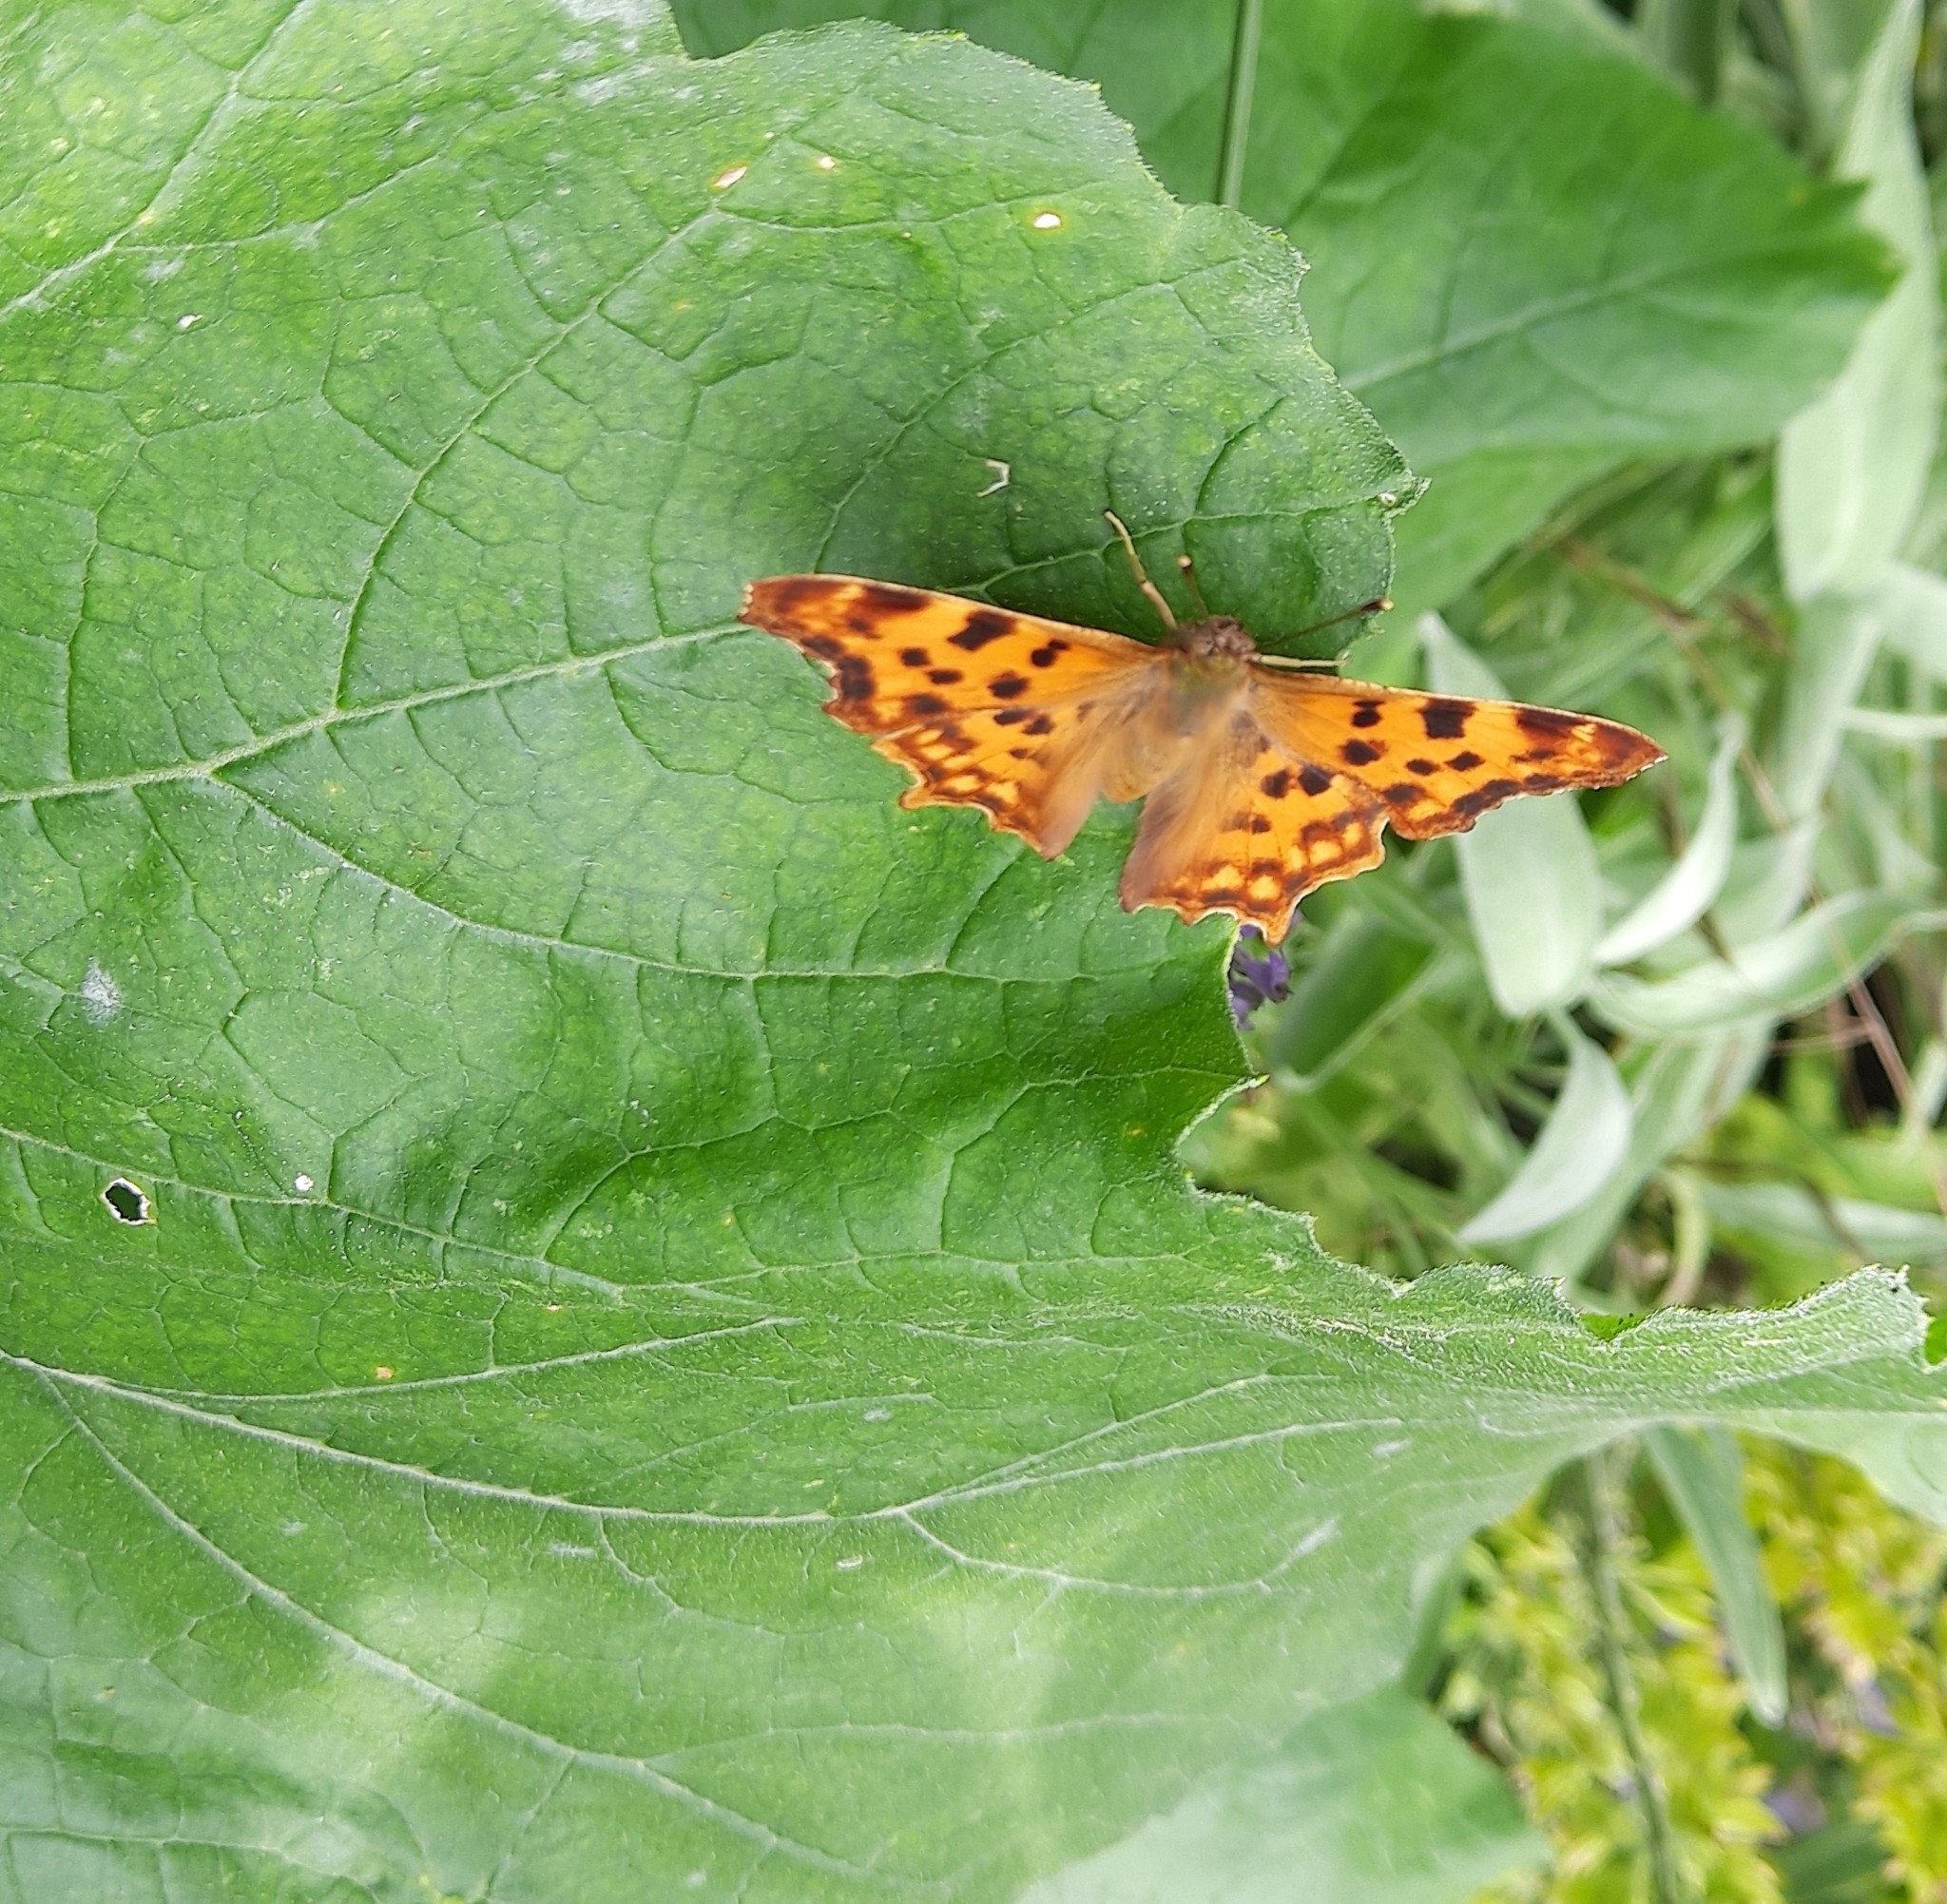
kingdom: Animalia
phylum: Arthropoda
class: Insecta
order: Lepidoptera
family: Nymphalidae
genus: Polygonia
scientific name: Polygonia c-album
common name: Comma
